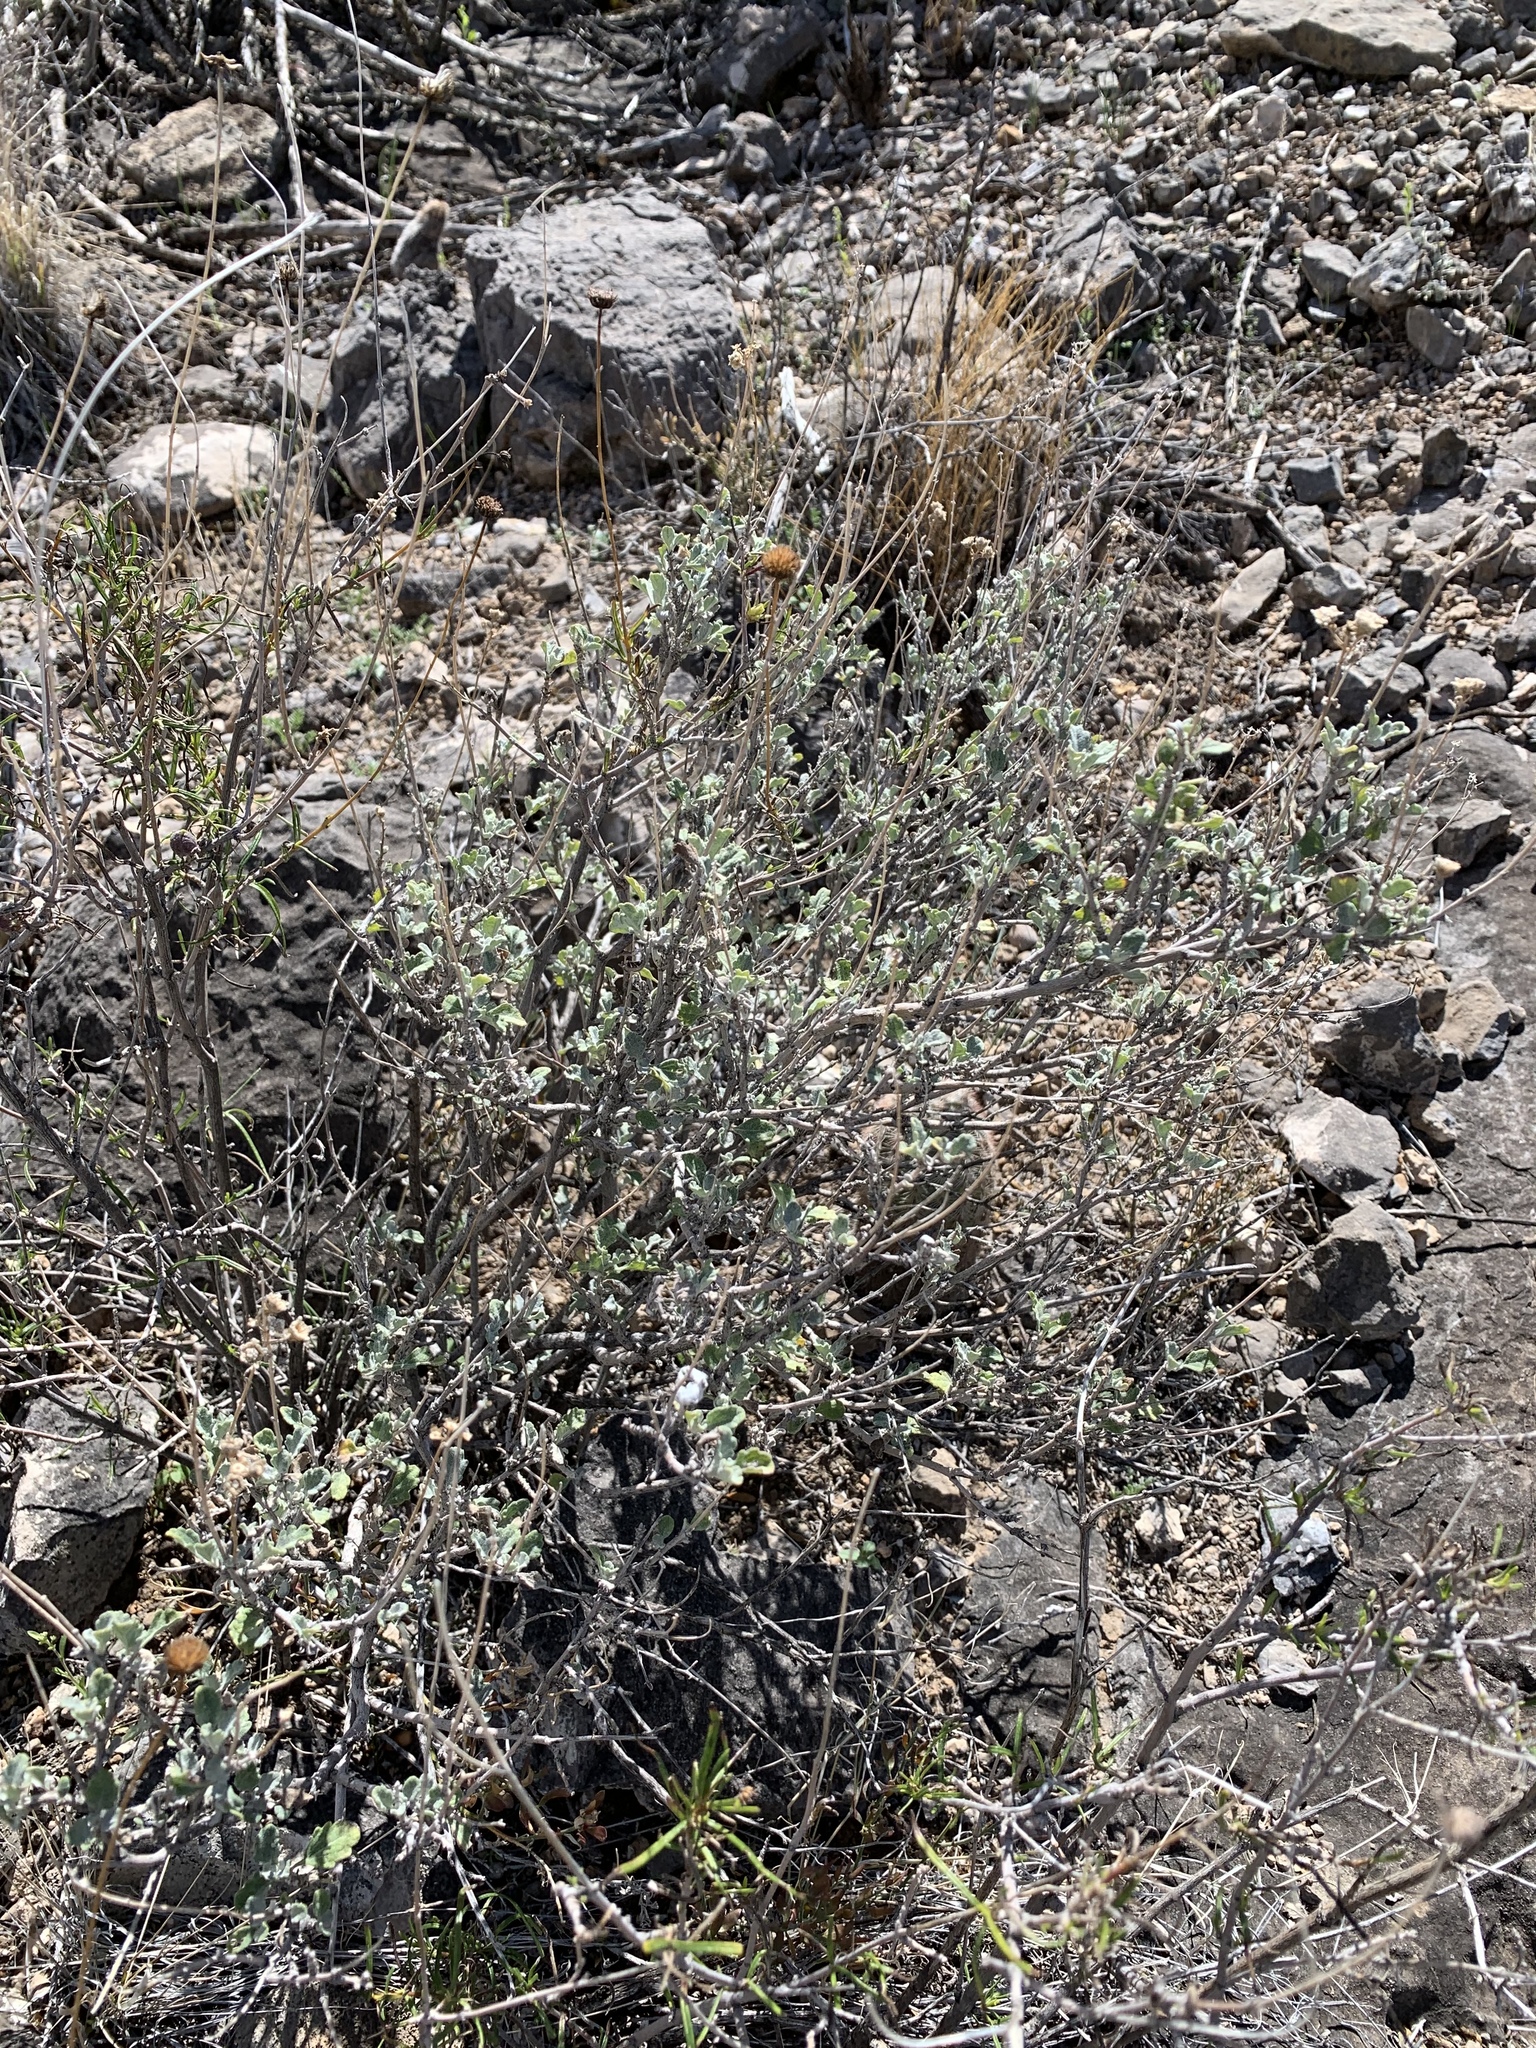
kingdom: Plantae
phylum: Tracheophyta
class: Magnoliopsida
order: Asterales
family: Asteraceae
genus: Parthenium
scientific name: Parthenium incanum
